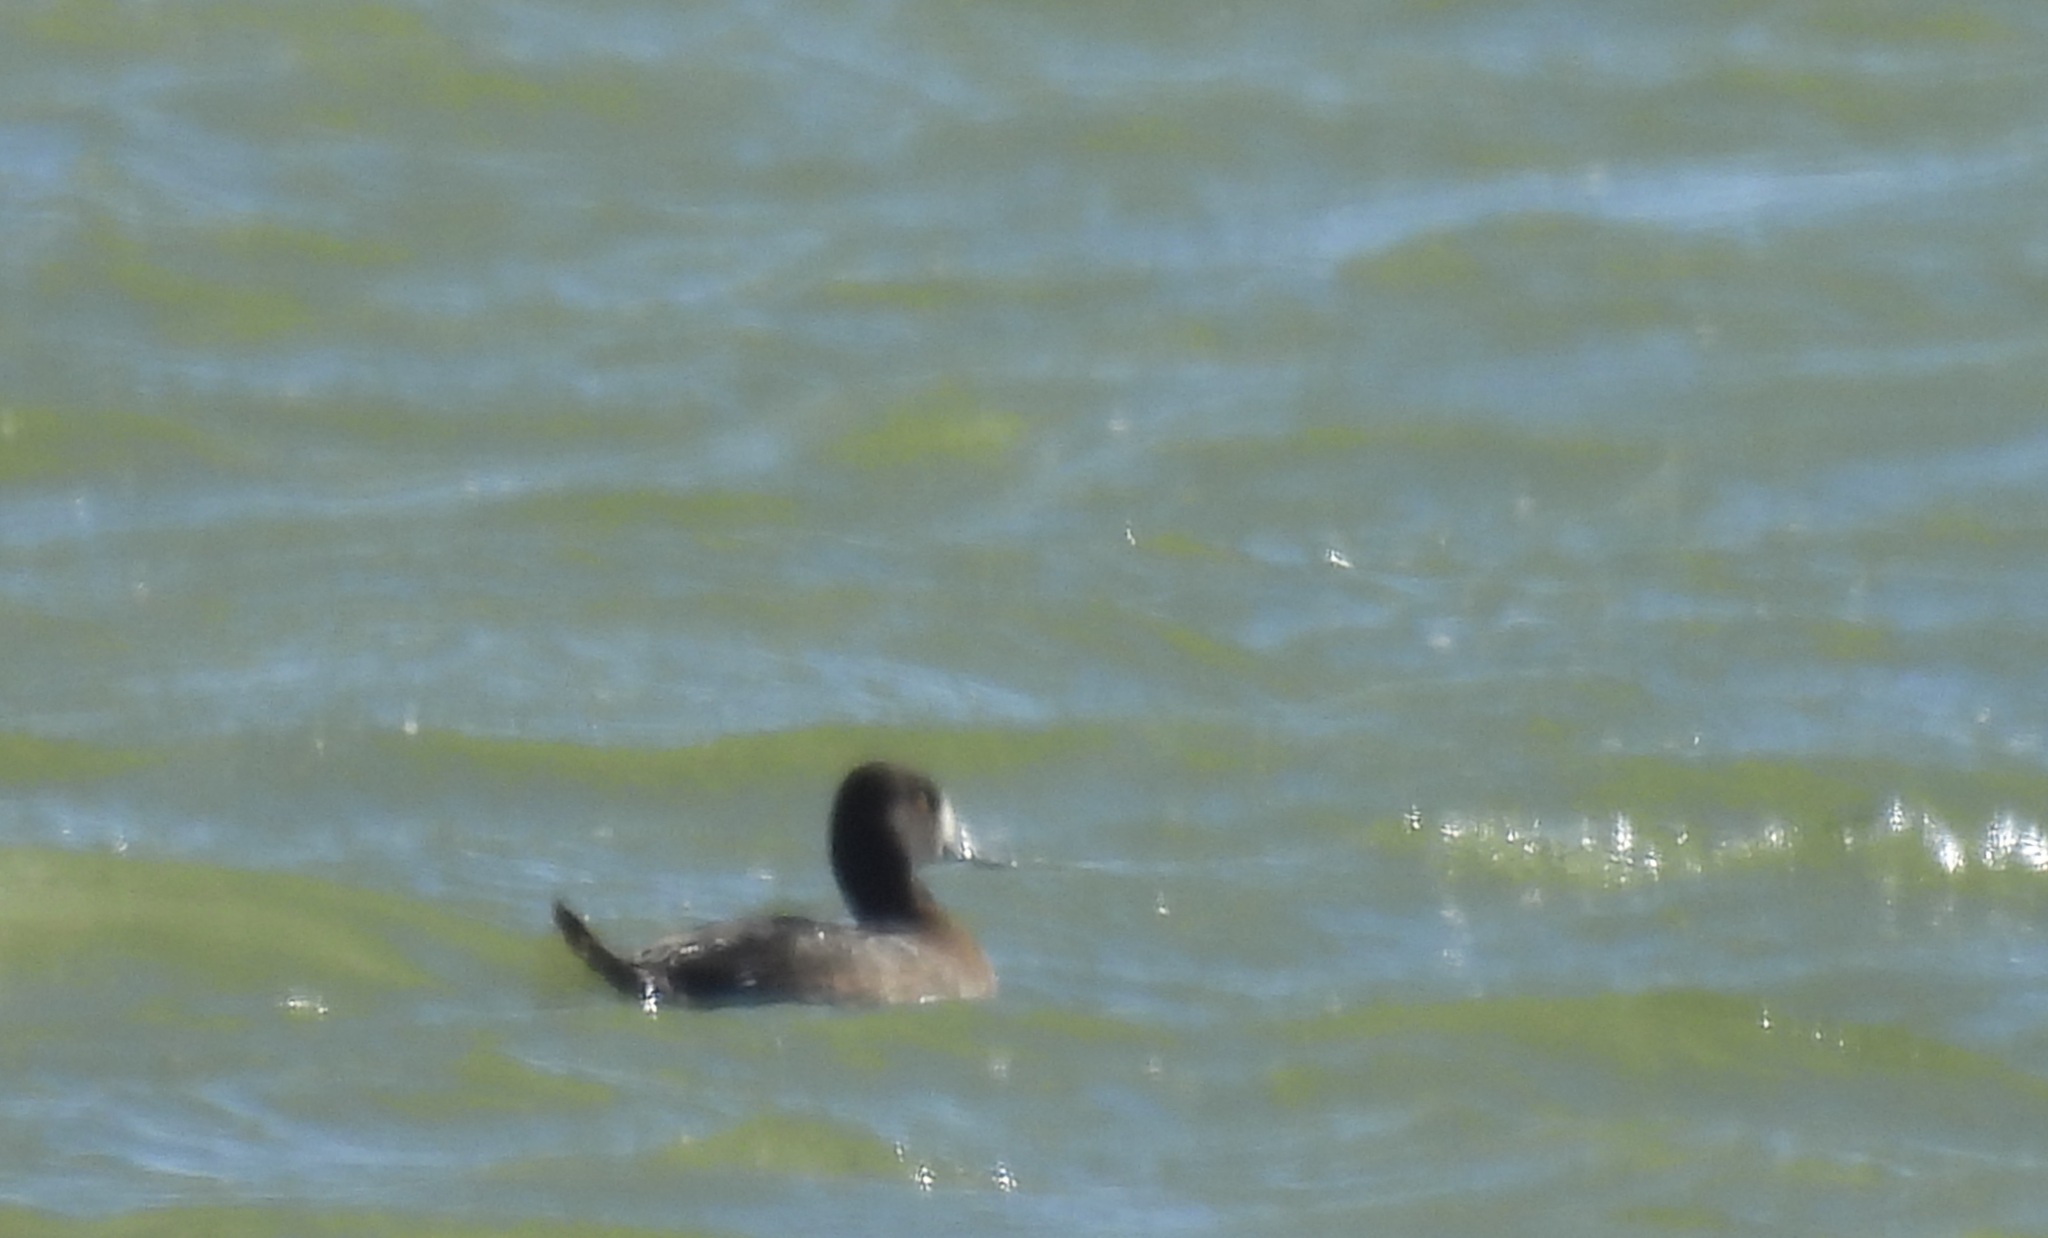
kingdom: Animalia
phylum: Chordata
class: Aves
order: Anseriformes
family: Anatidae
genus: Aythya
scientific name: Aythya affinis
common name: Lesser scaup
